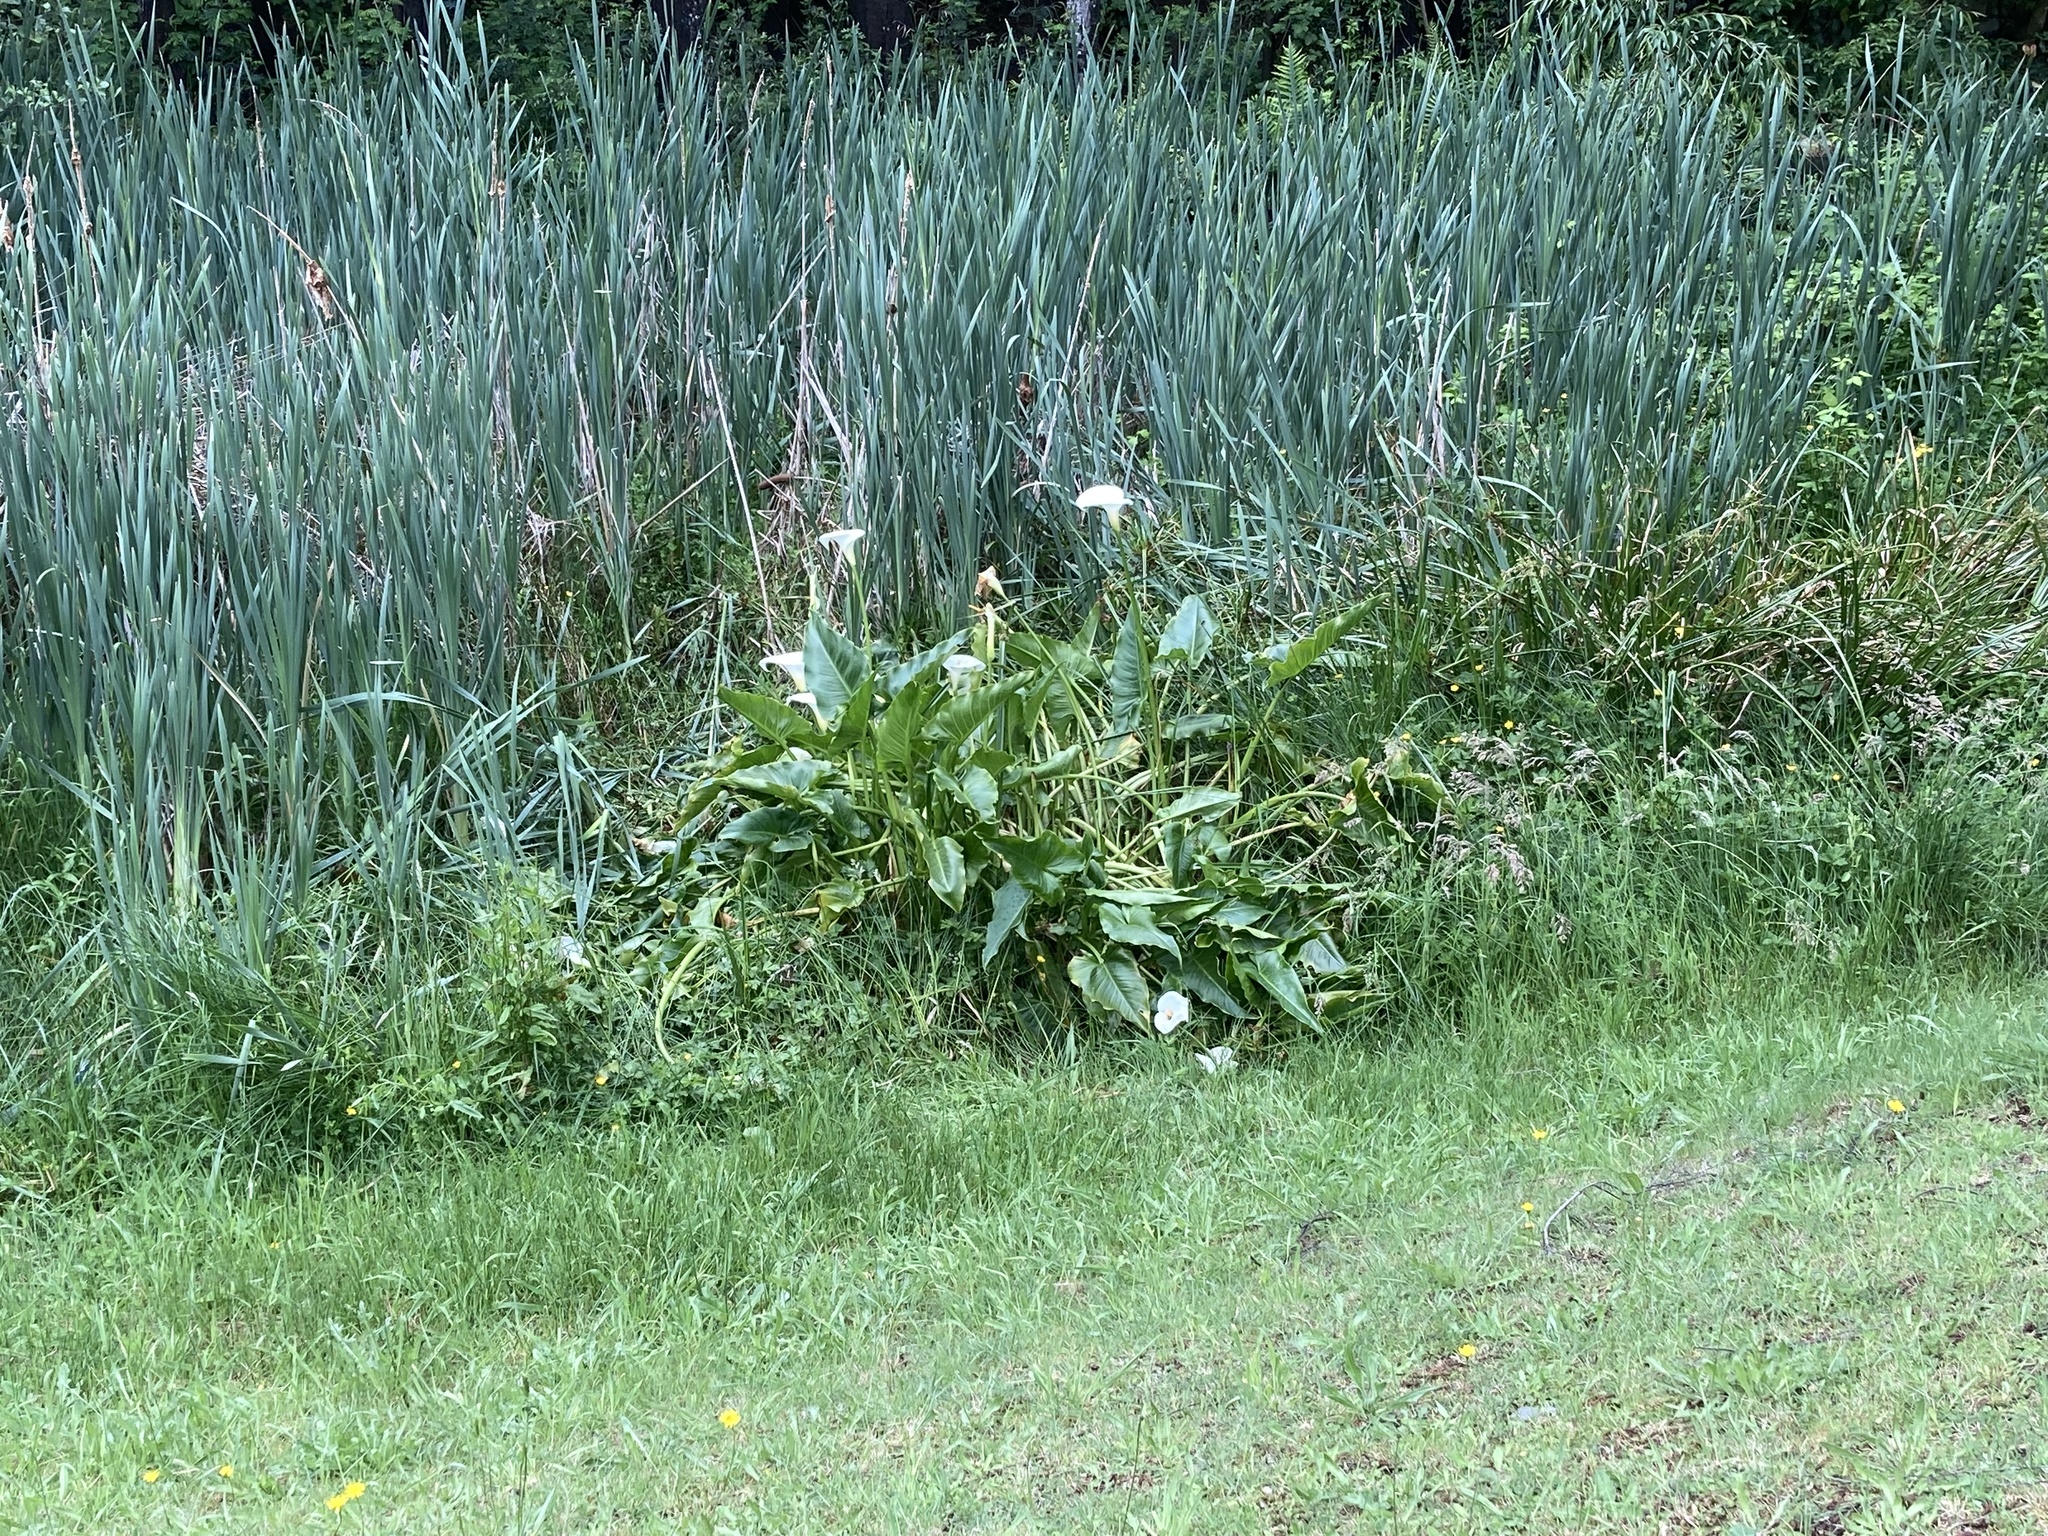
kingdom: Plantae
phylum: Tracheophyta
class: Liliopsida
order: Alismatales
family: Araceae
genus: Zantedeschia
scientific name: Zantedeschia aethiopica
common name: Altar-lily
